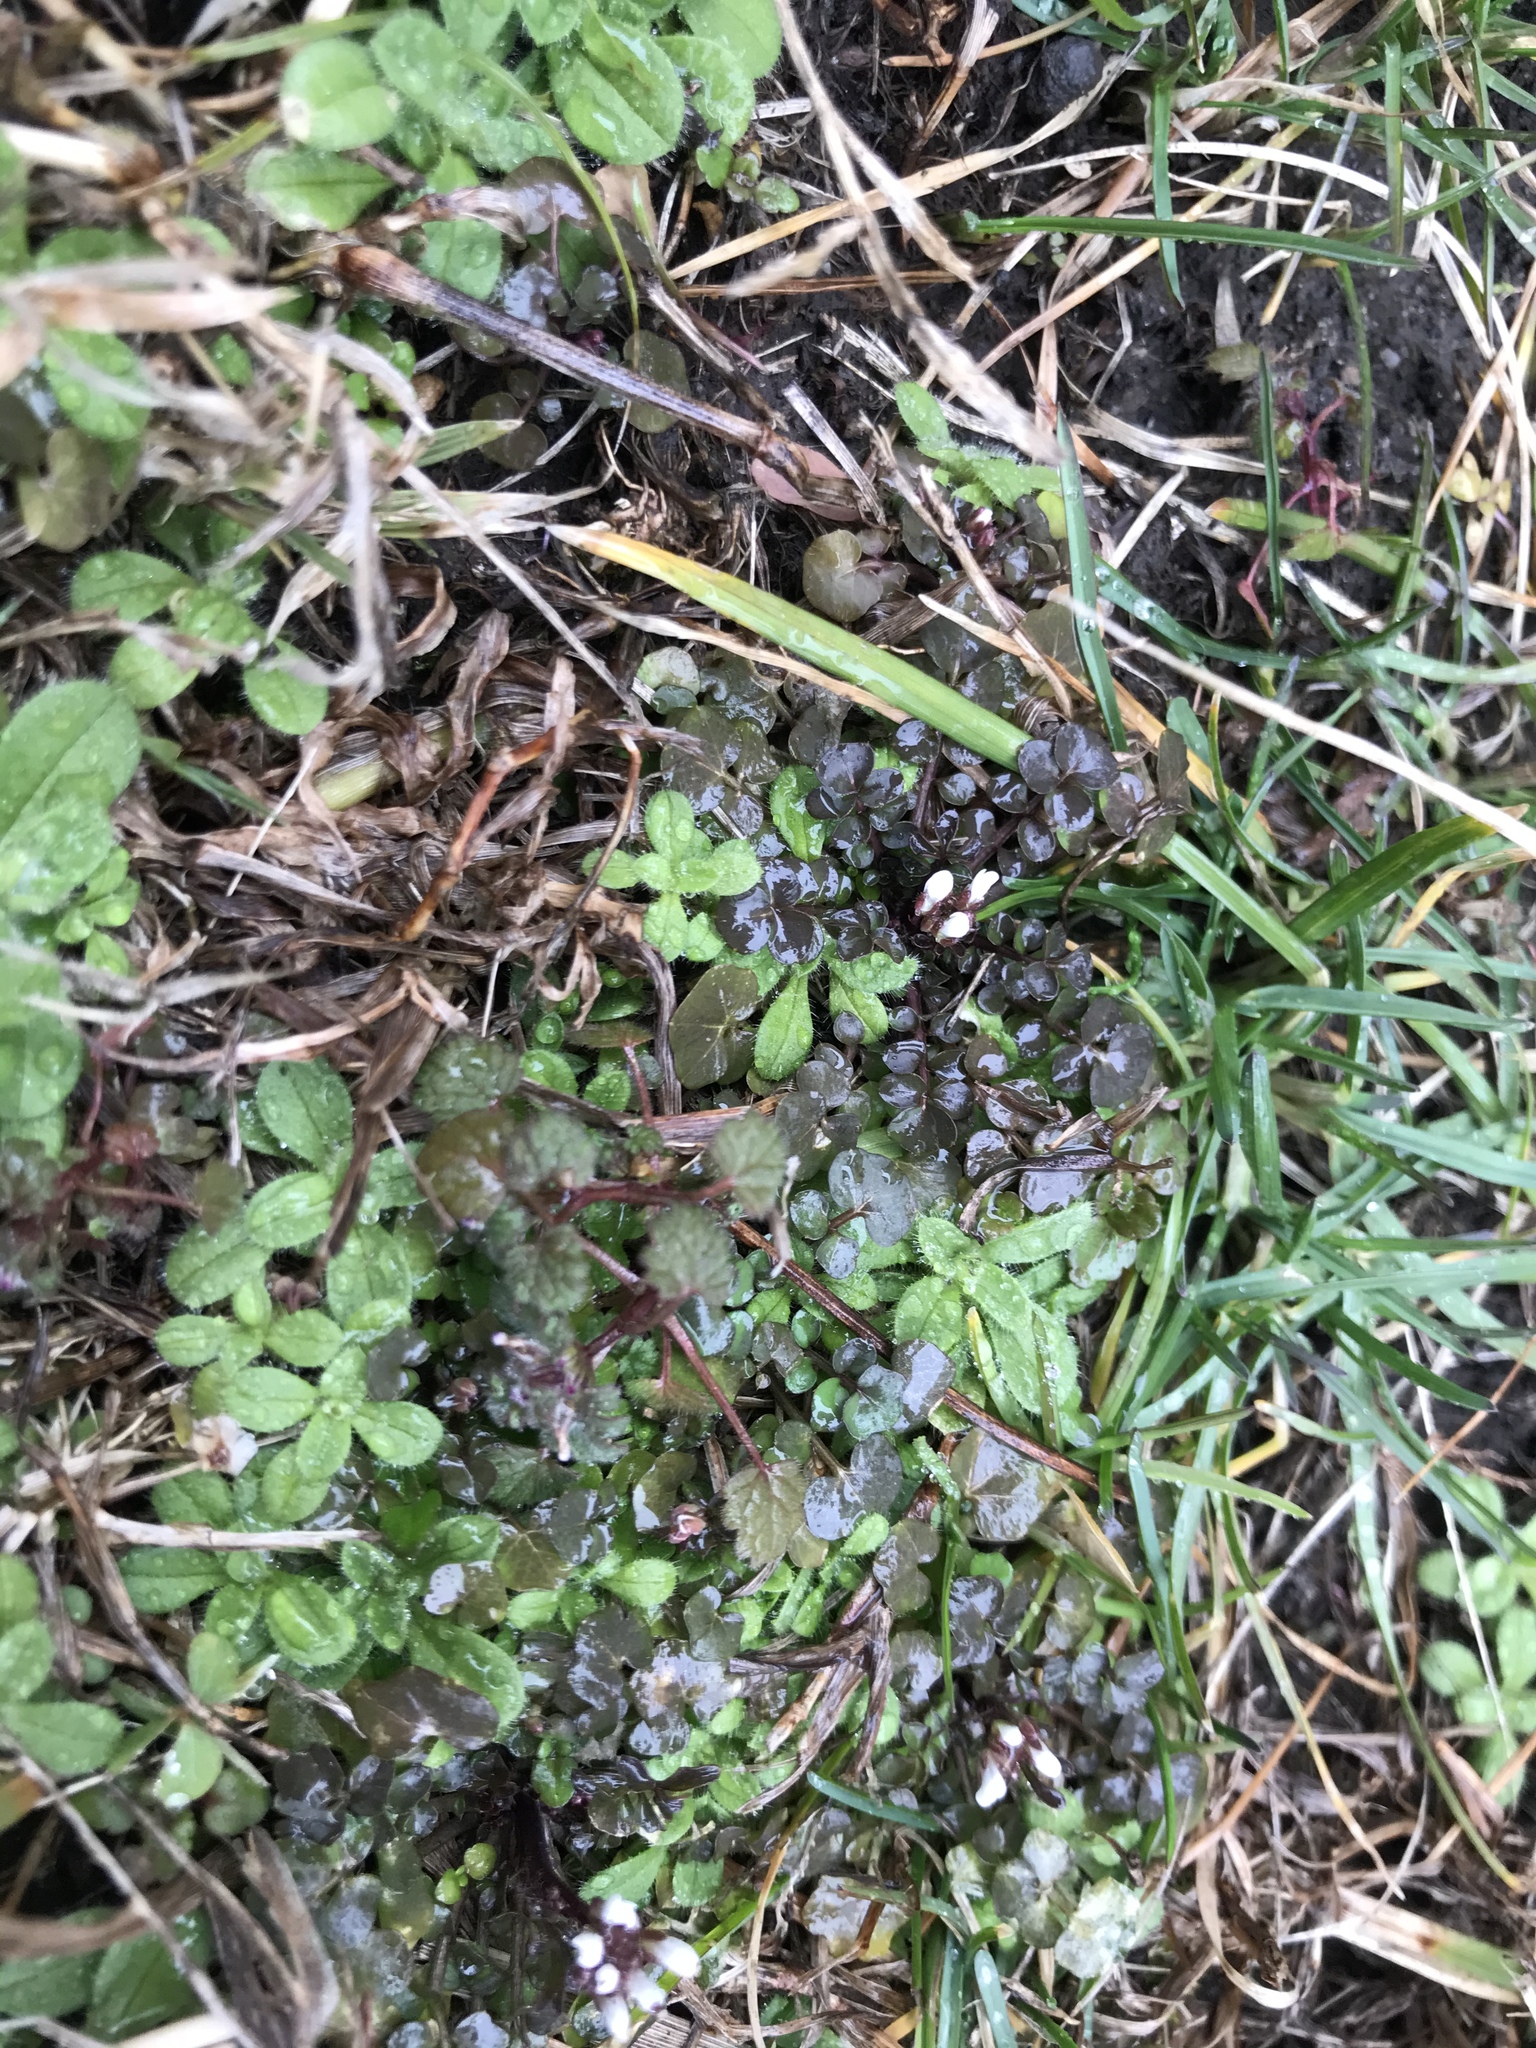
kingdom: Plantae
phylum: Tracheophyta
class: Magnoliopsida
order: Brassicales
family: Brassicaceae
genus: Cardamine
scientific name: Cardamine hirsuta
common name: Hairy bittercress
